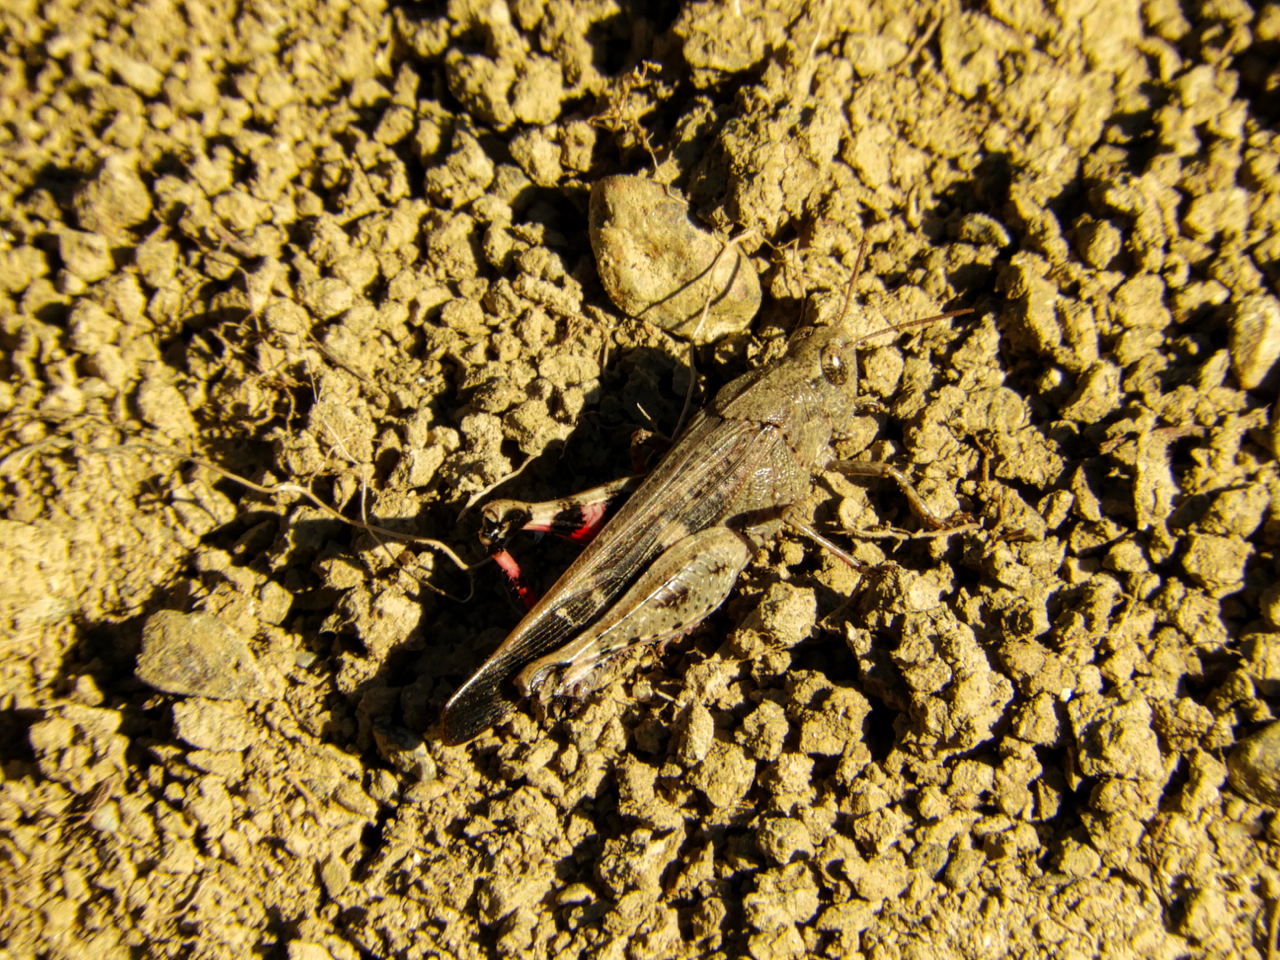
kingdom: Animalia
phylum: Arthropoda
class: Insecta
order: Orthoptera
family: Acrididae
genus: Aiolopus
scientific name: Aiolopus strepens
